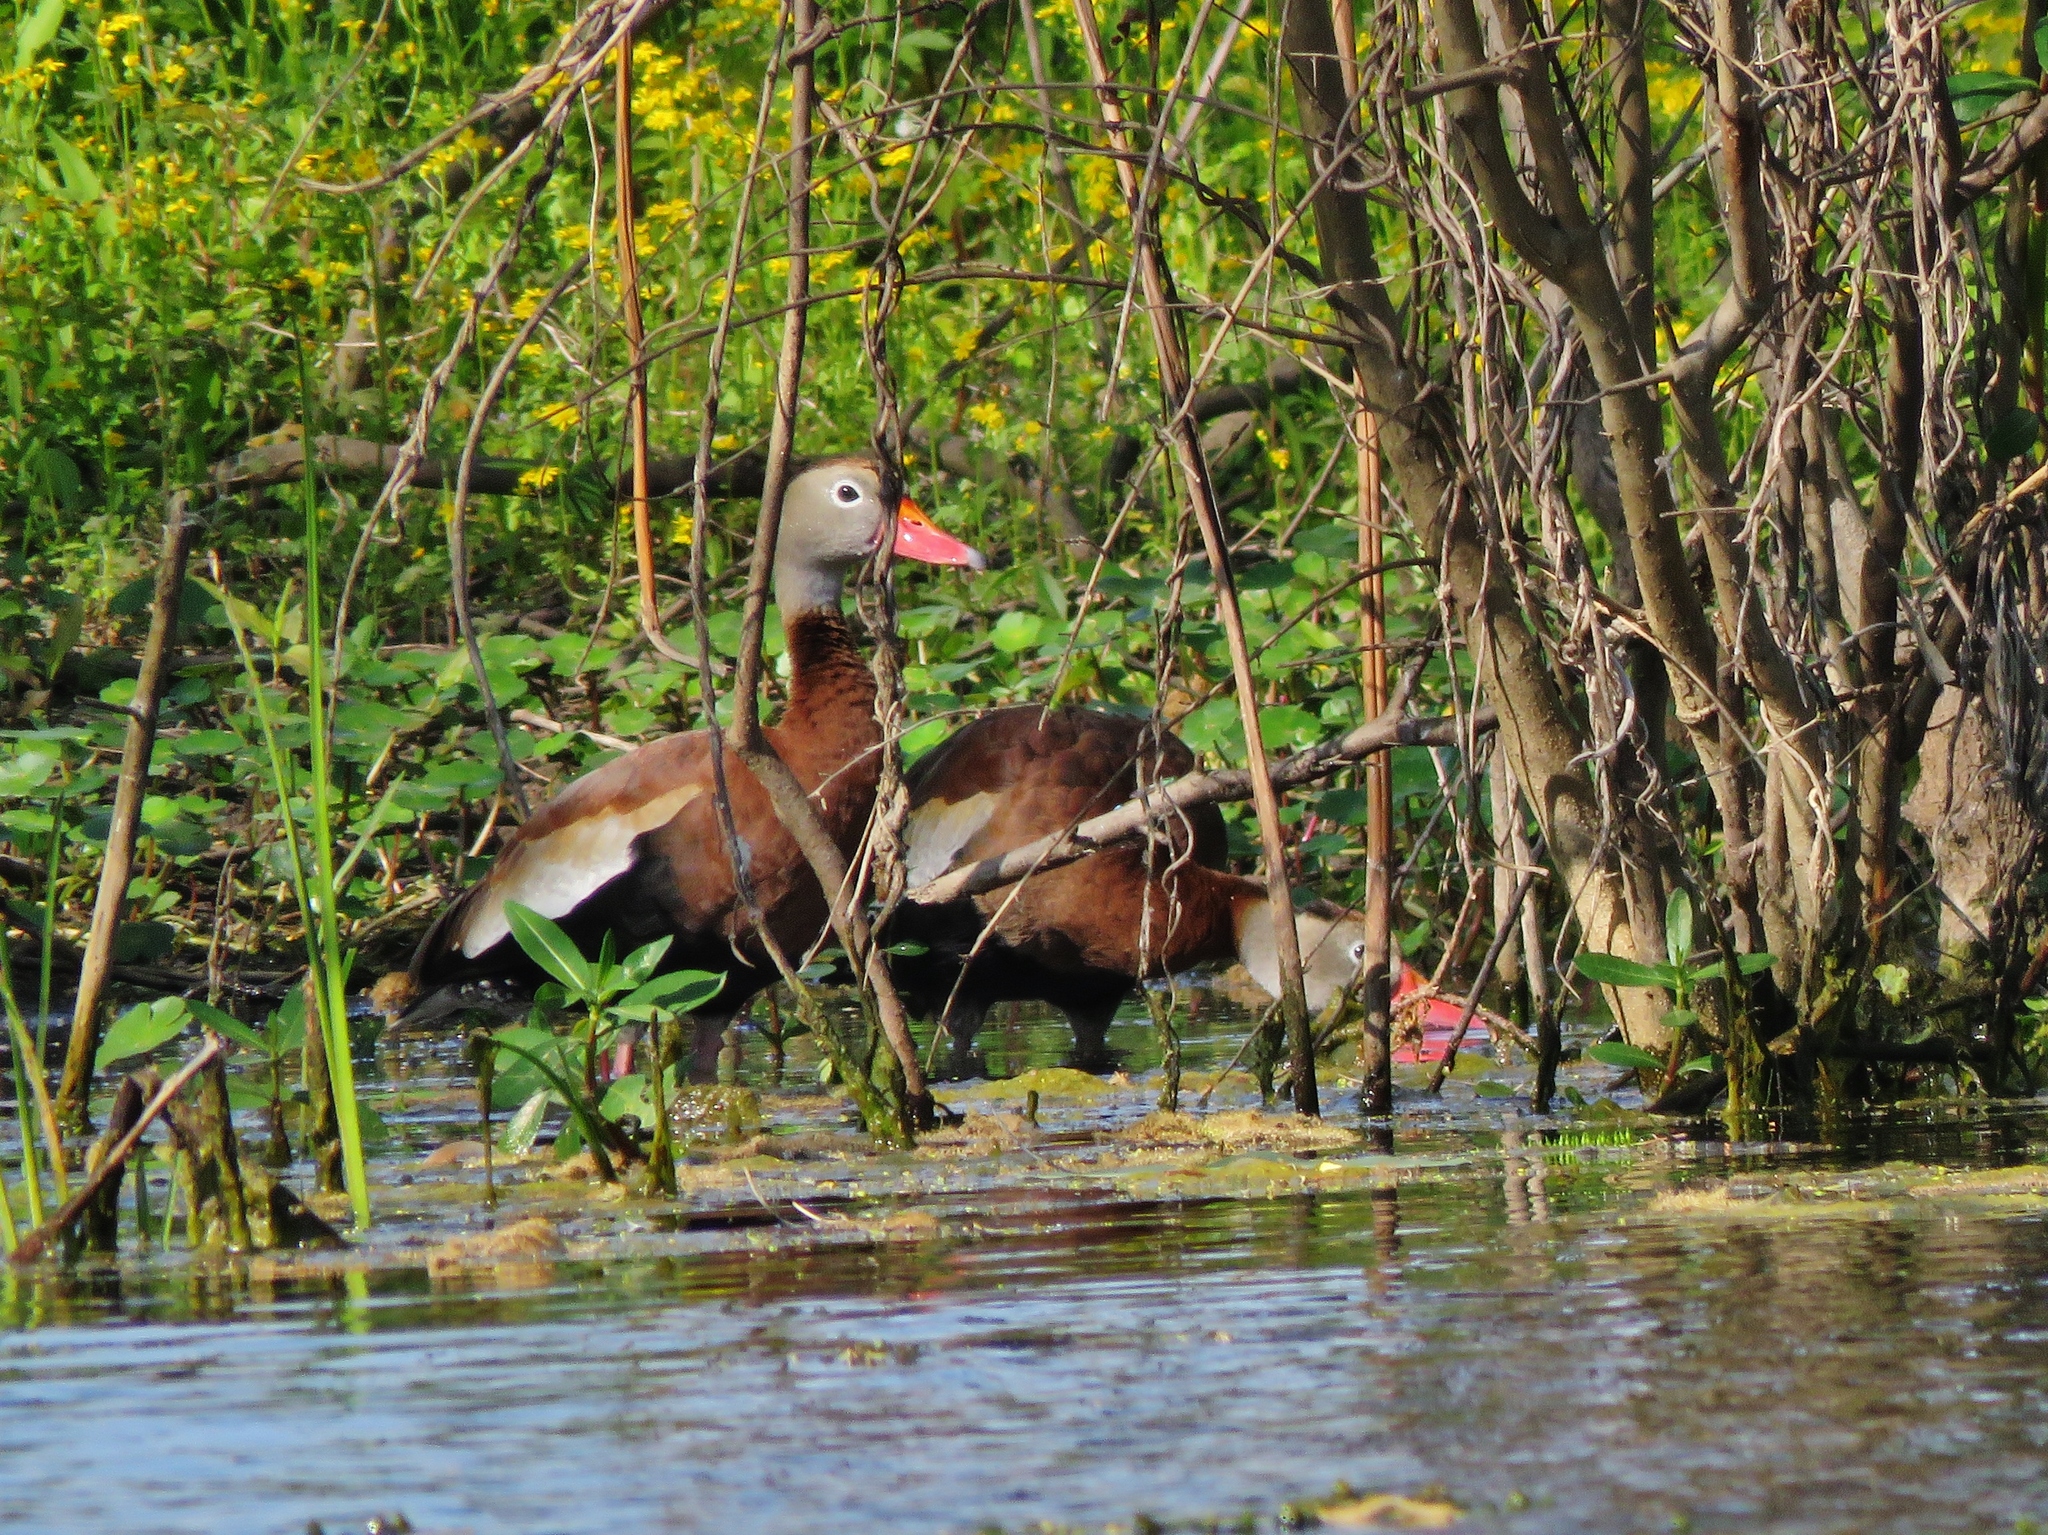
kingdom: Animalia
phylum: Chordata
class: Aves
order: Anseriformes
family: Anatidae
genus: Dendrocygna
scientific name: Dendrocygna autumnalis
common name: Black-bellied whistling duck
